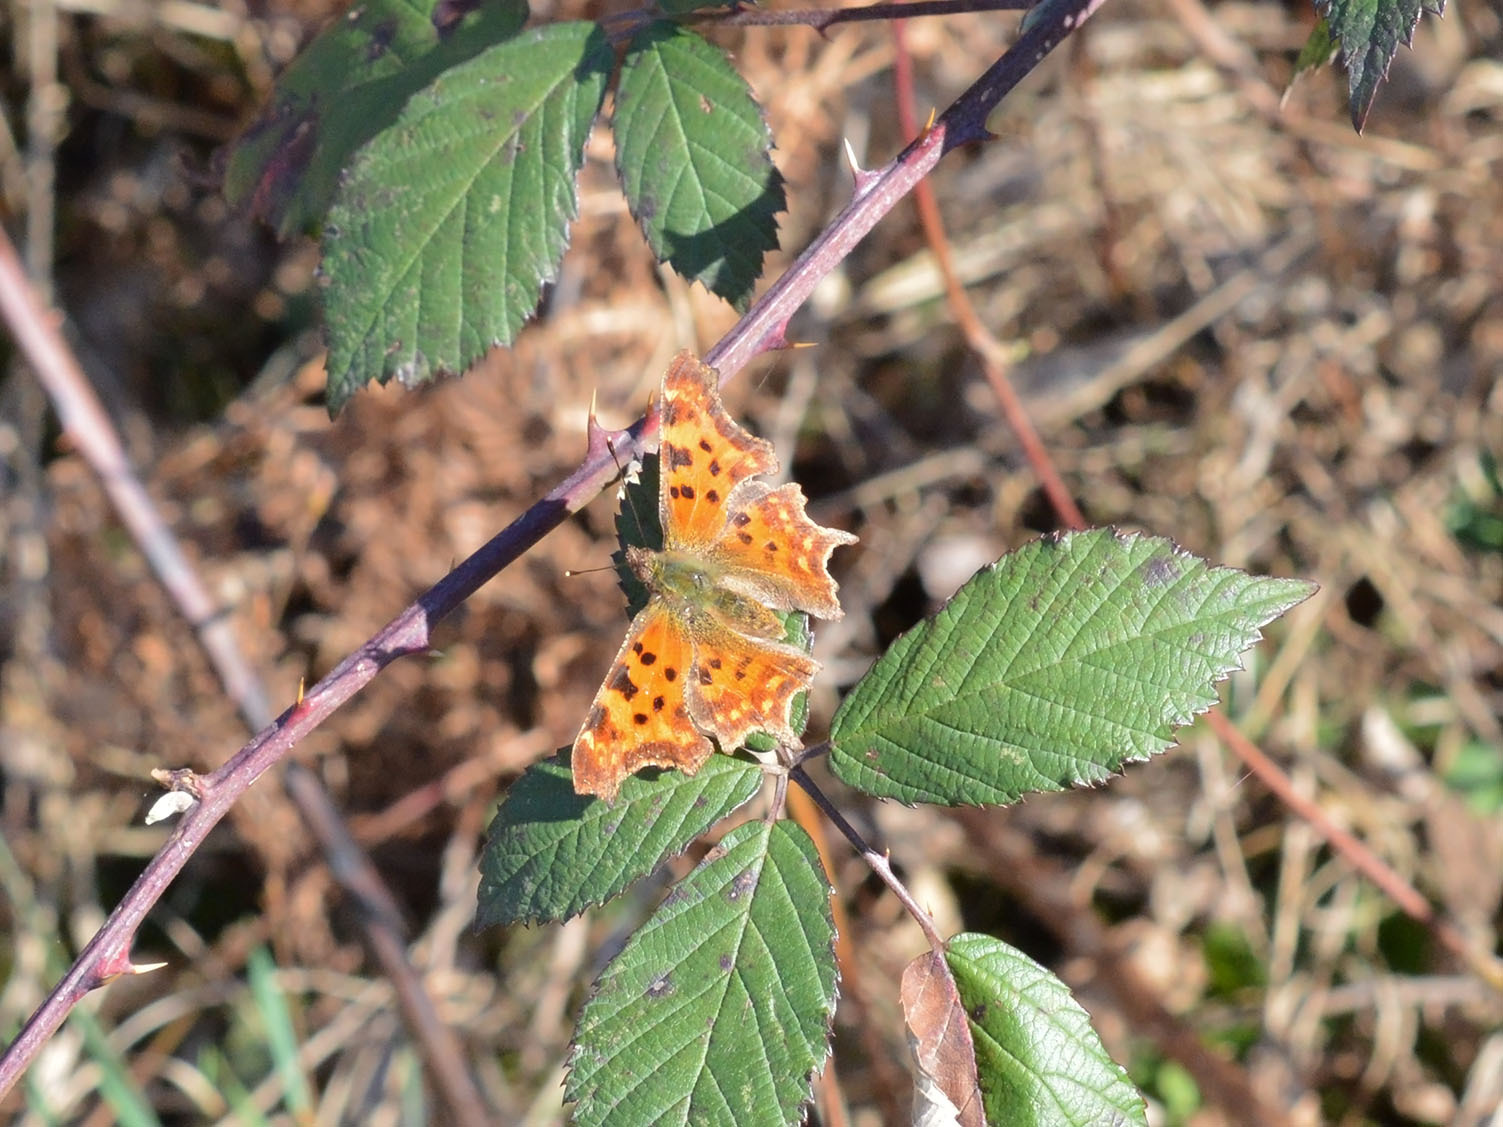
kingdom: Animalia
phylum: Arthropoda
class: Insecta
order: Lepidoptera
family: Nymphalidae
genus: Polygonia
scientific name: Polygonia c-album
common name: Comma
